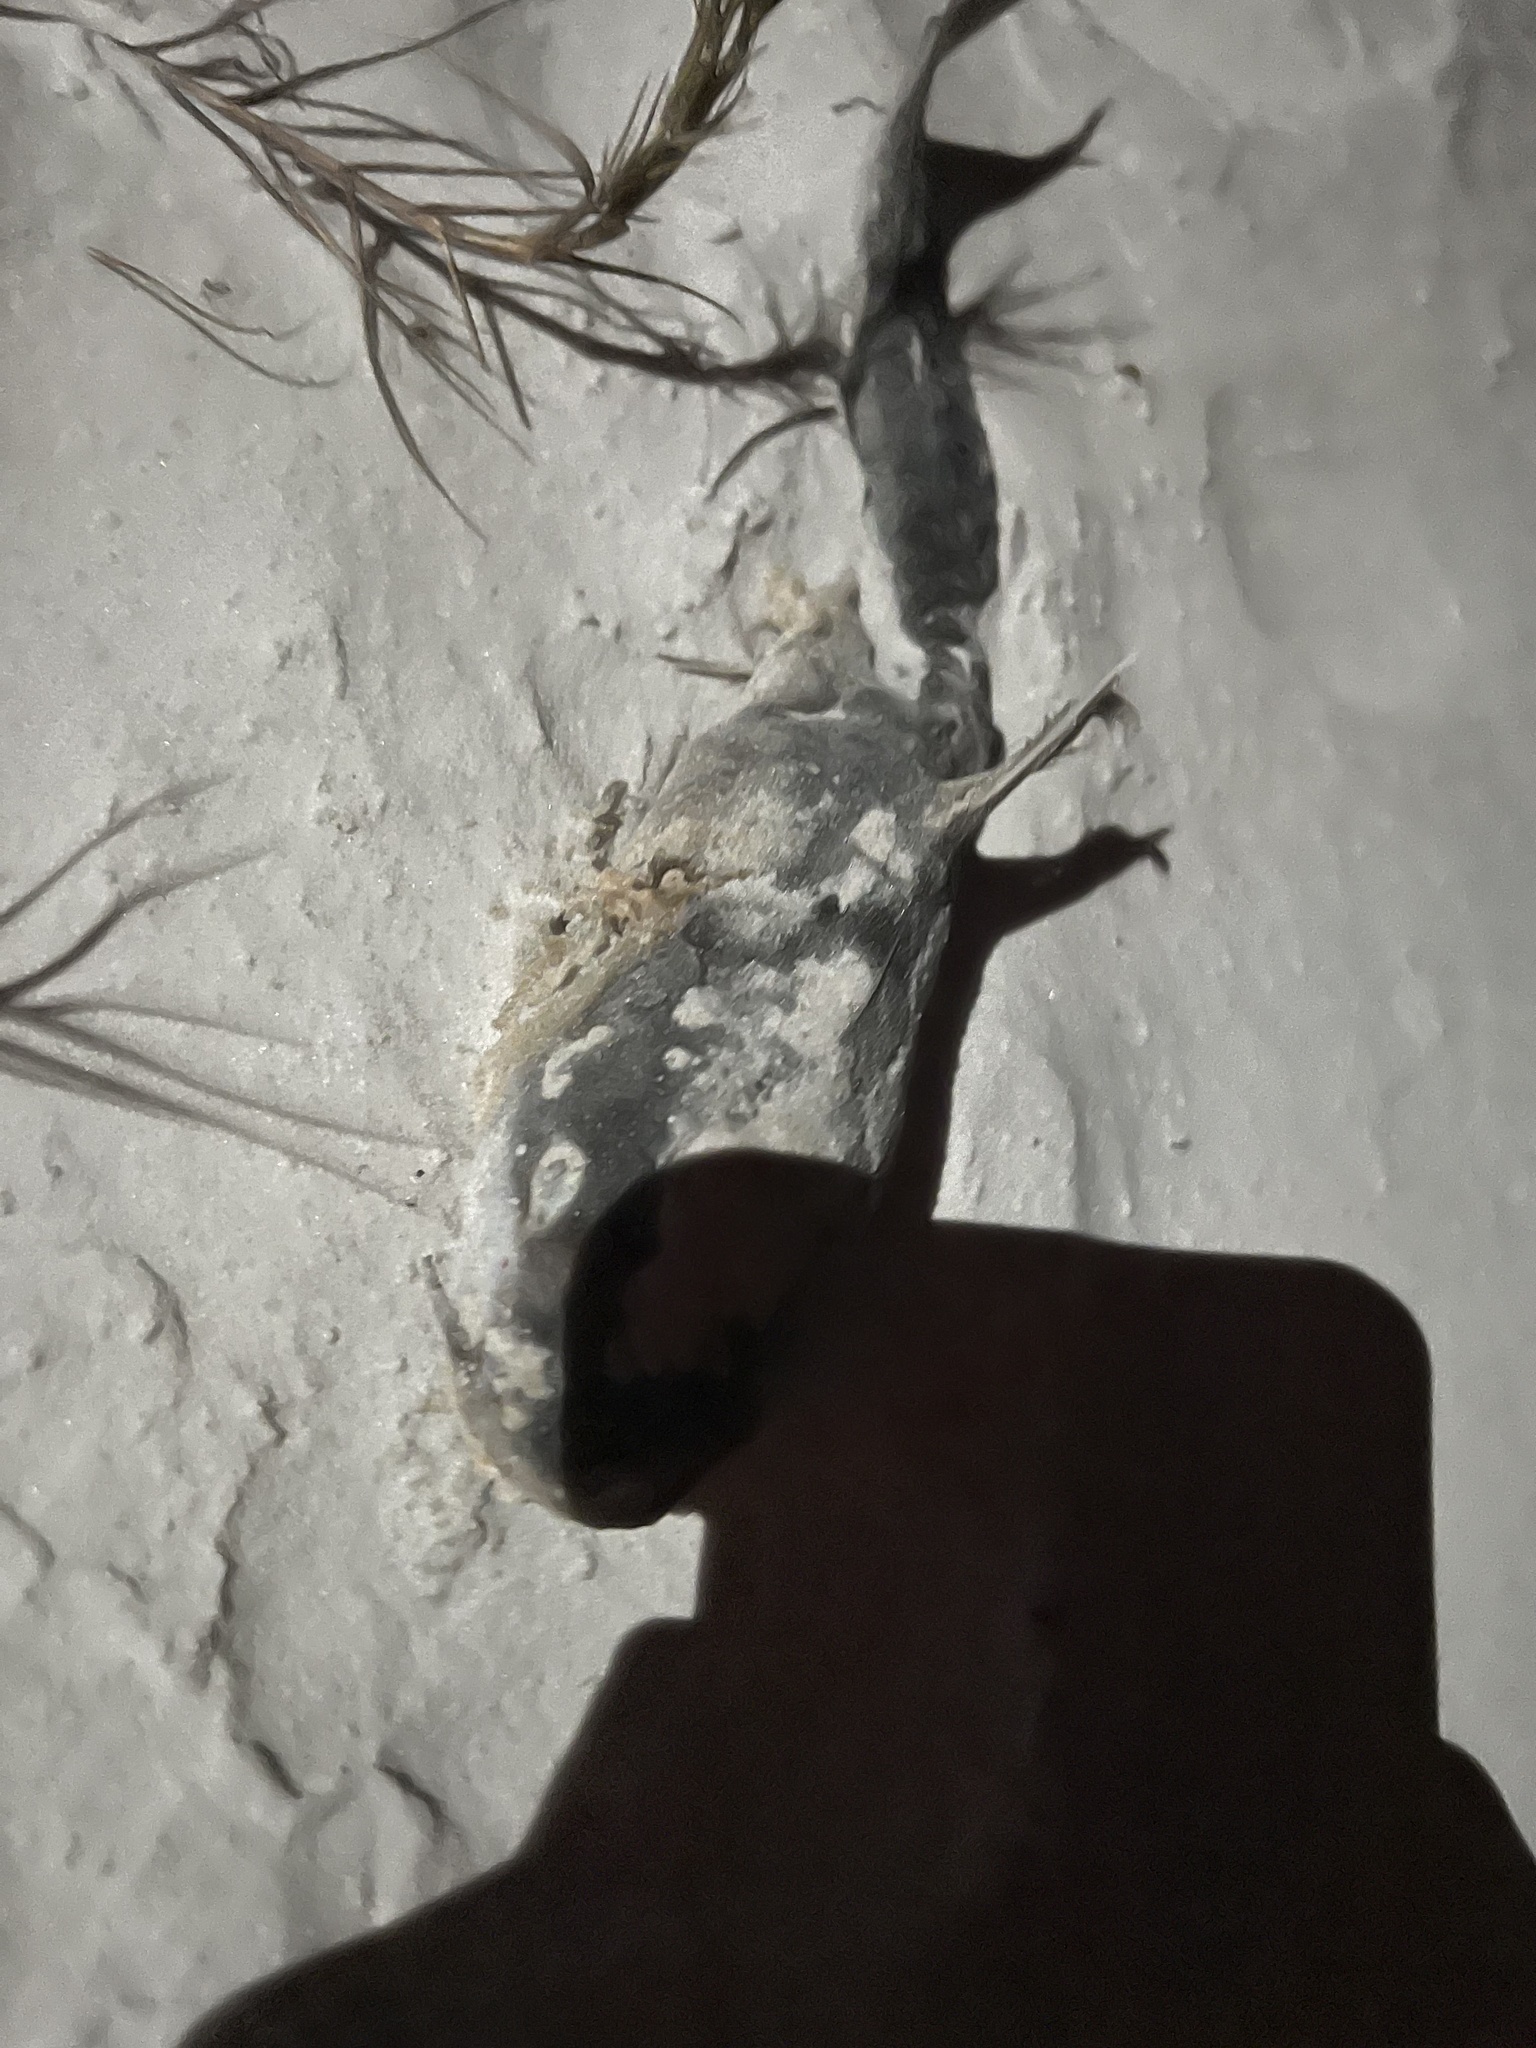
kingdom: Animalia
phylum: Chordata
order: Siluriformes
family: Ariidae
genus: Ariopsis
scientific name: Ariopsis felis
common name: Hardhead catfish
